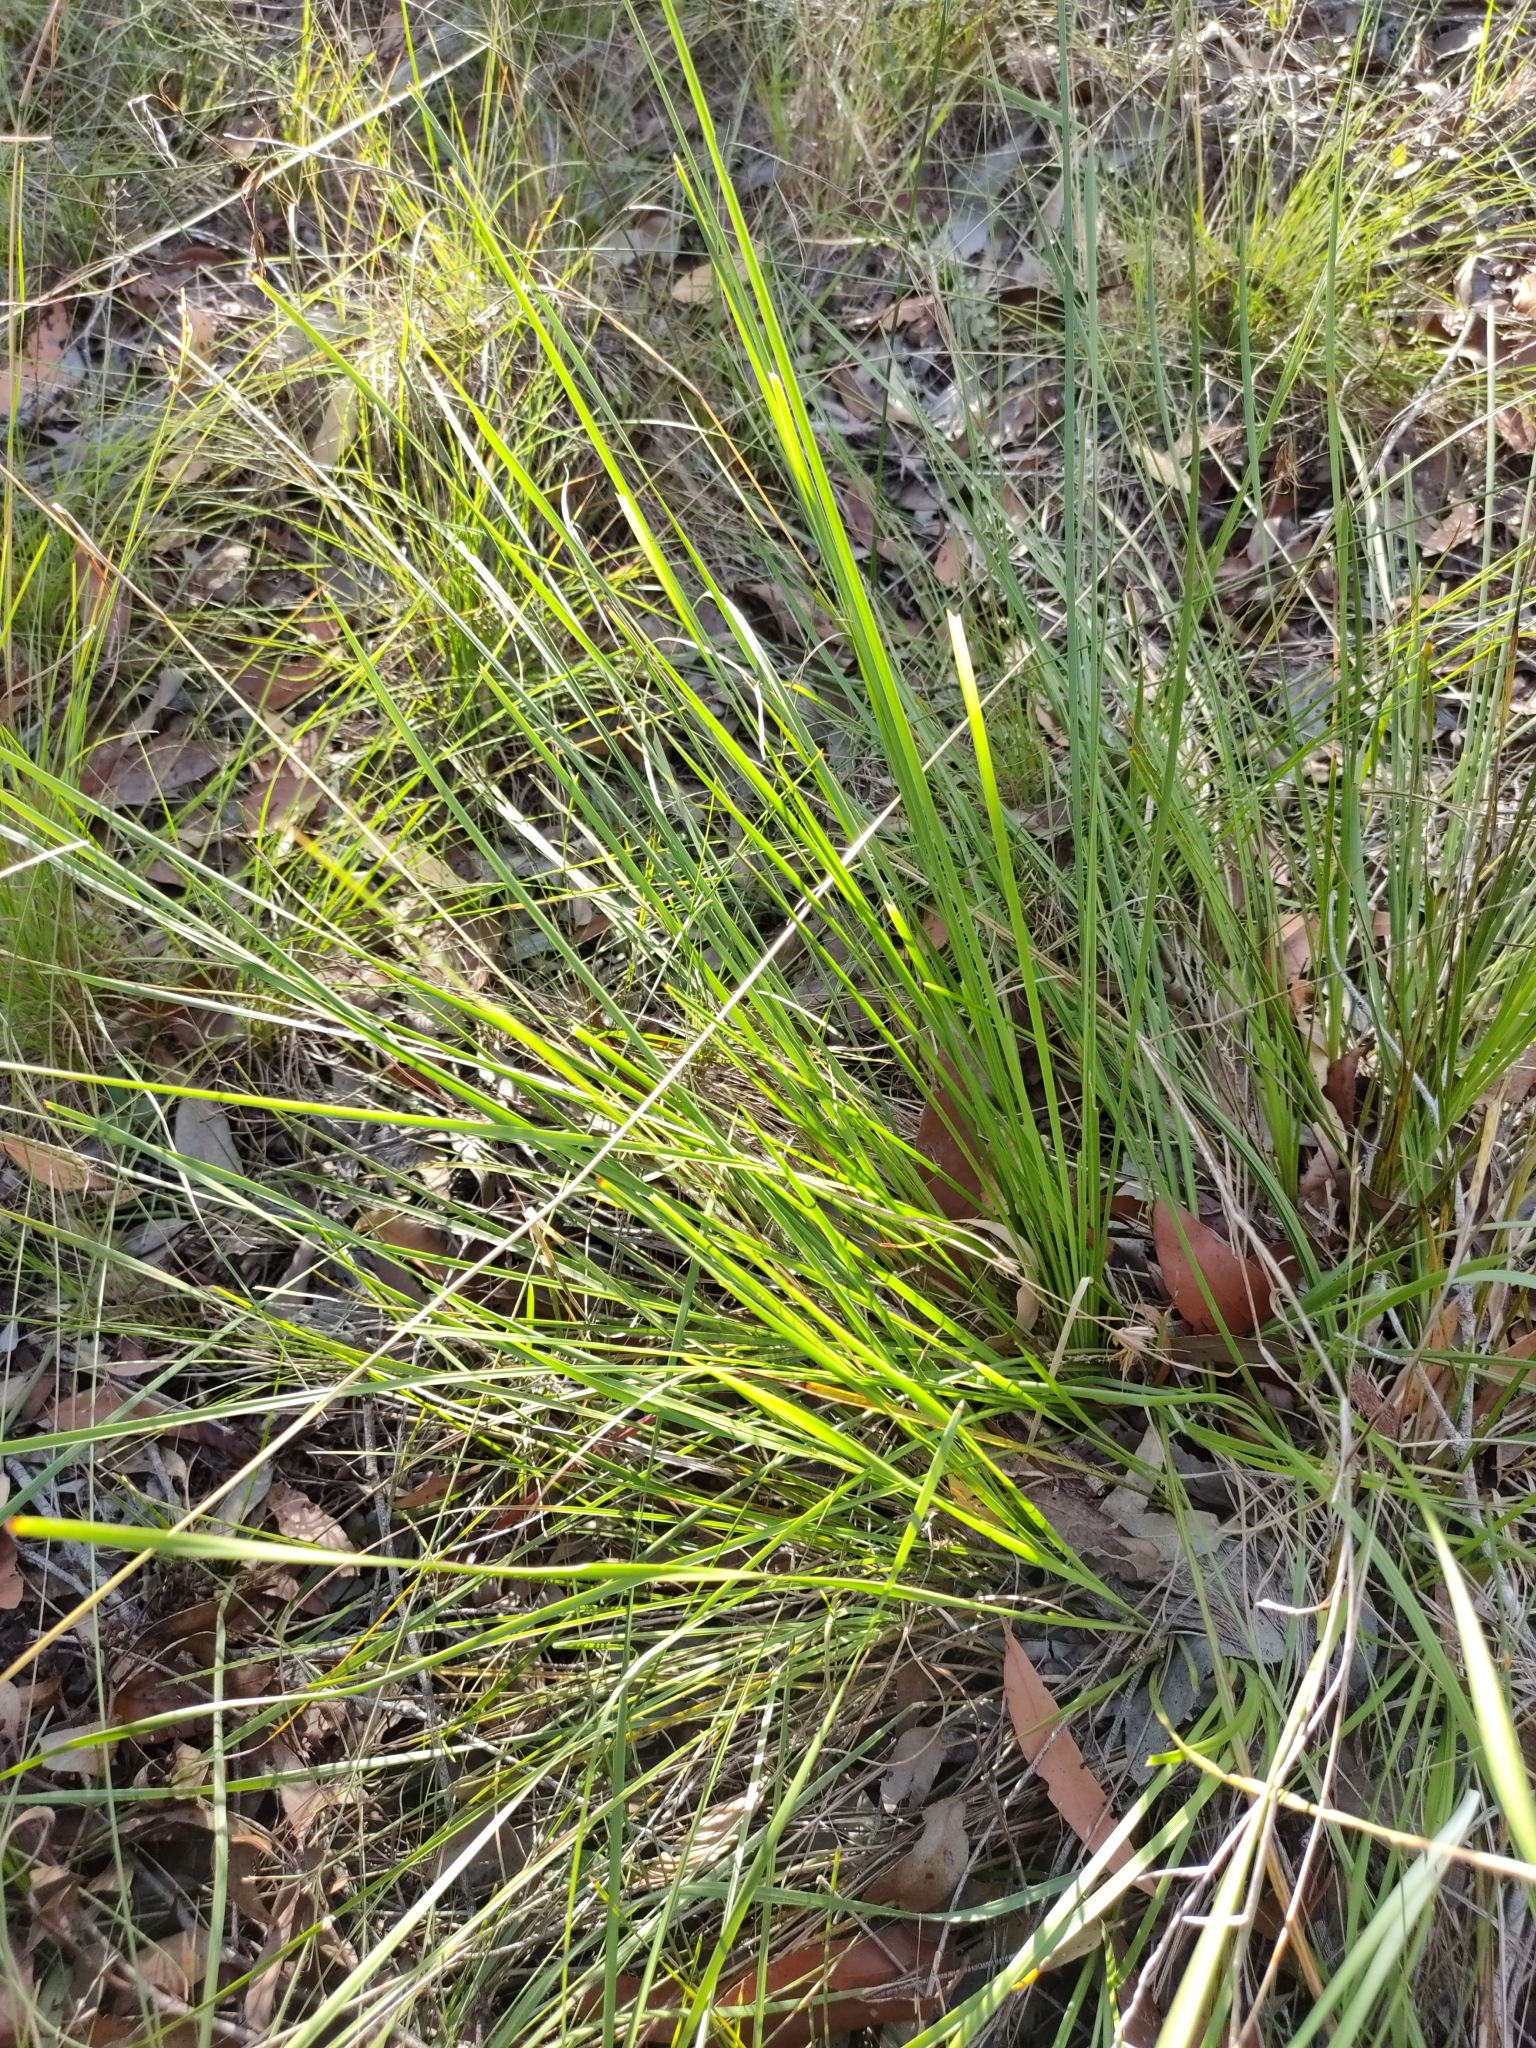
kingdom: Plantae
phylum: Tracheophyta
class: Liliopsida
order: Asparagales
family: Asparagaceae
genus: Lomandra
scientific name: Lomandra confertifolia
